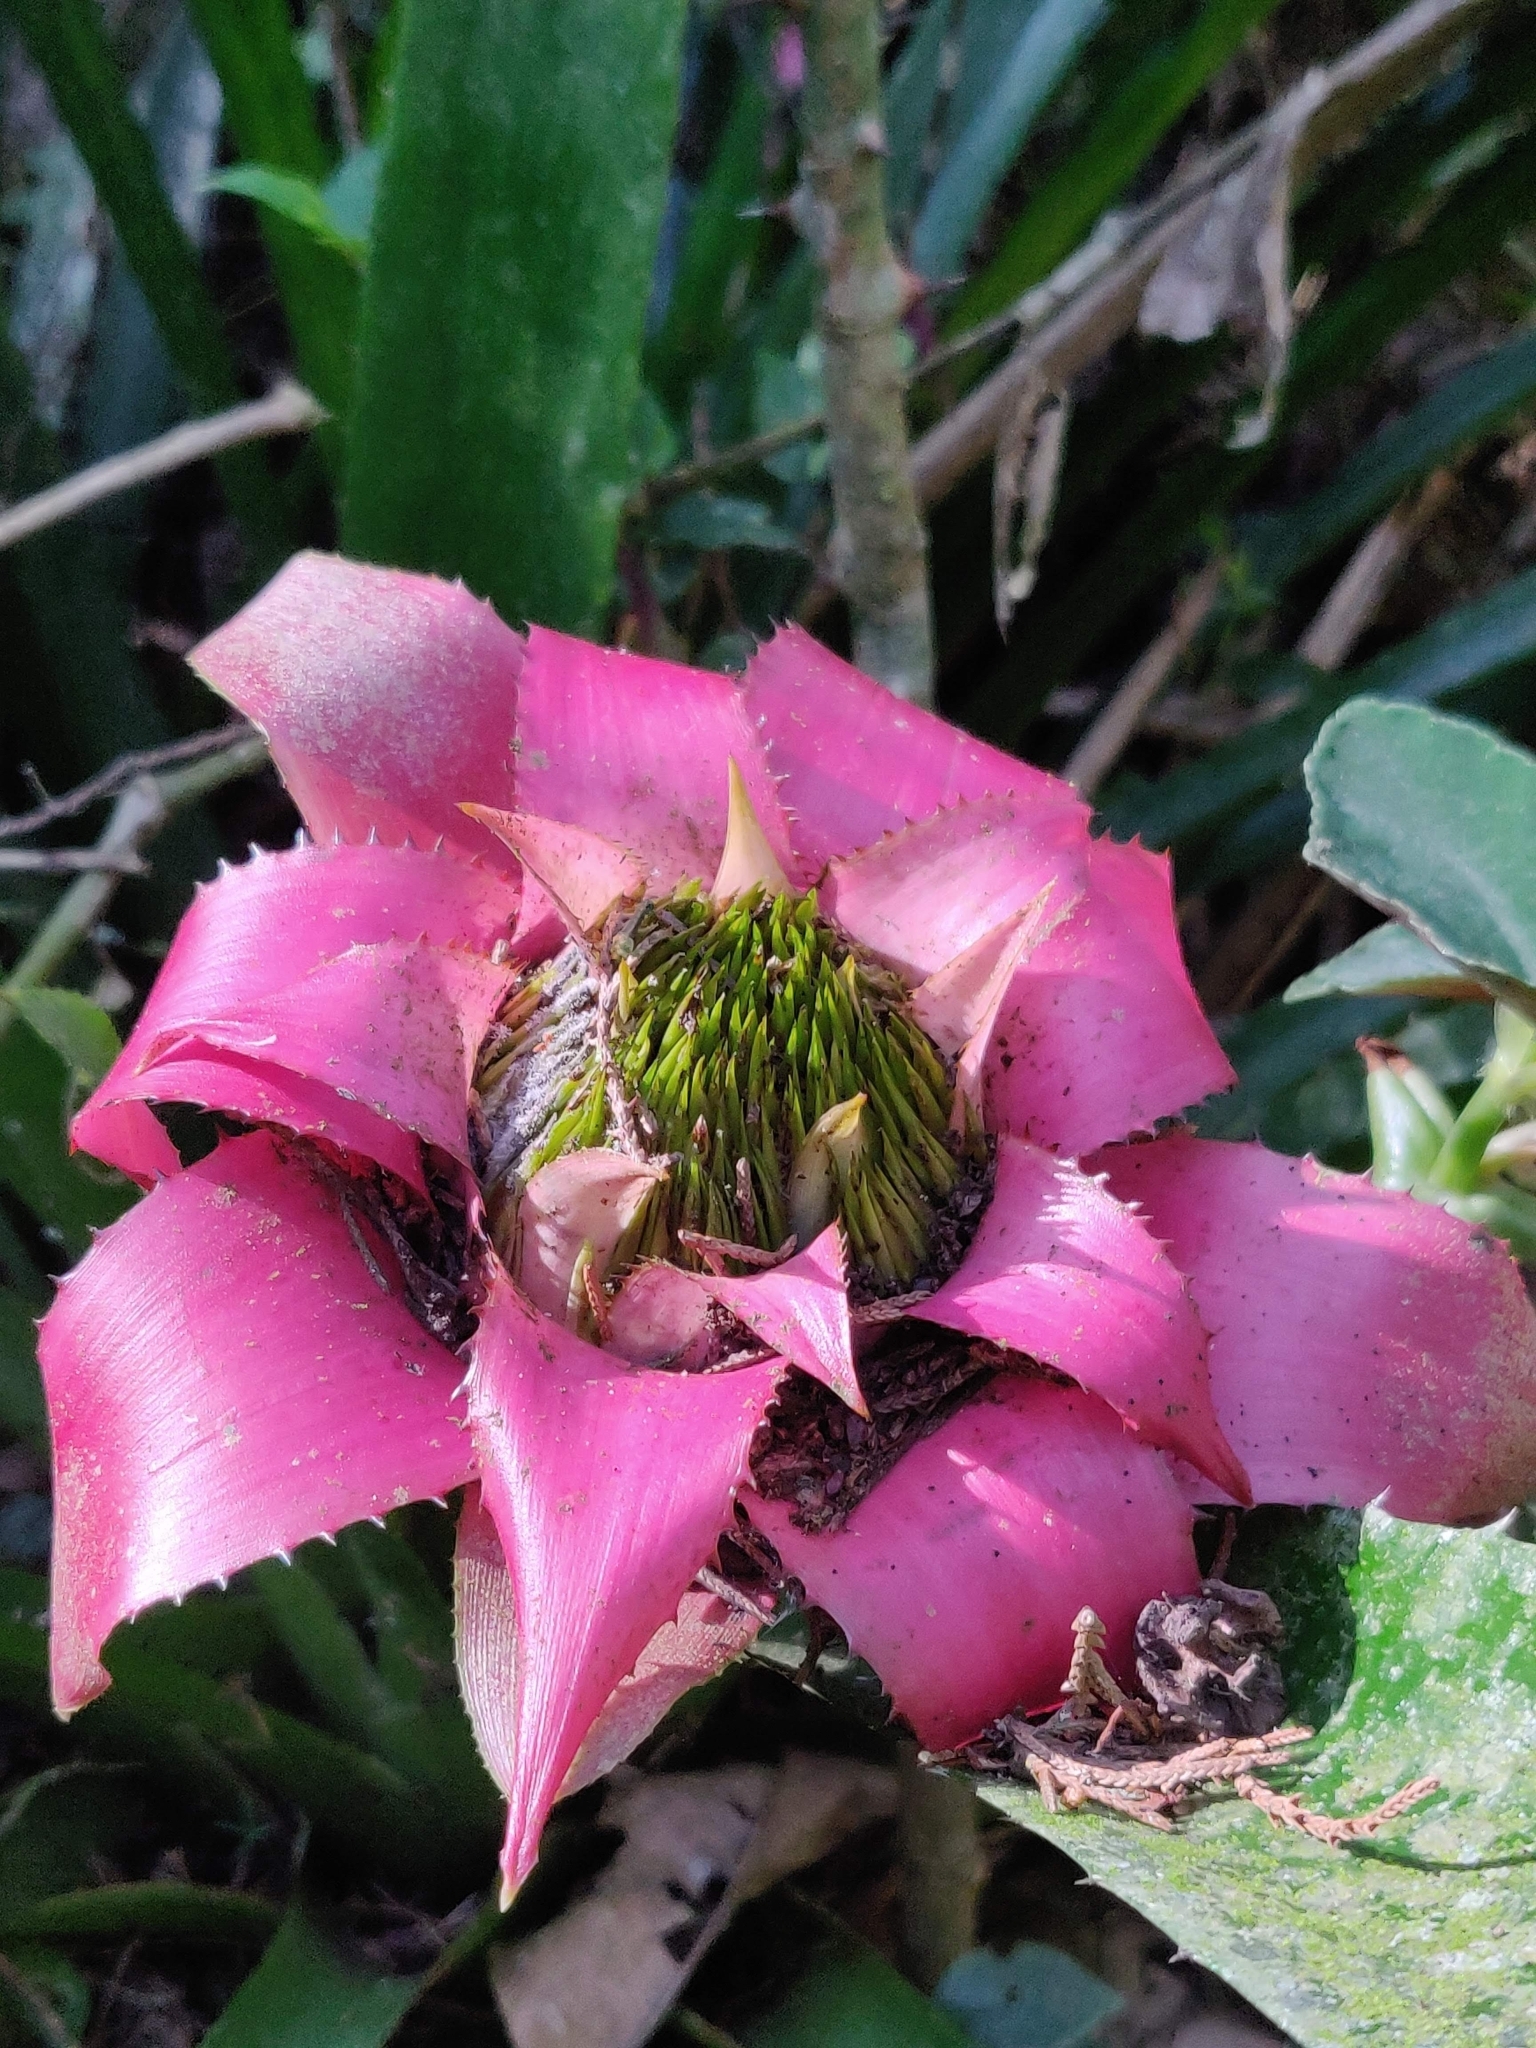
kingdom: Plantae
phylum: Tracheophyta
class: Liliopsida
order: Poales
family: Bromeliaceae
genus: Wittrockia
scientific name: Wittrockia cyathiformis
